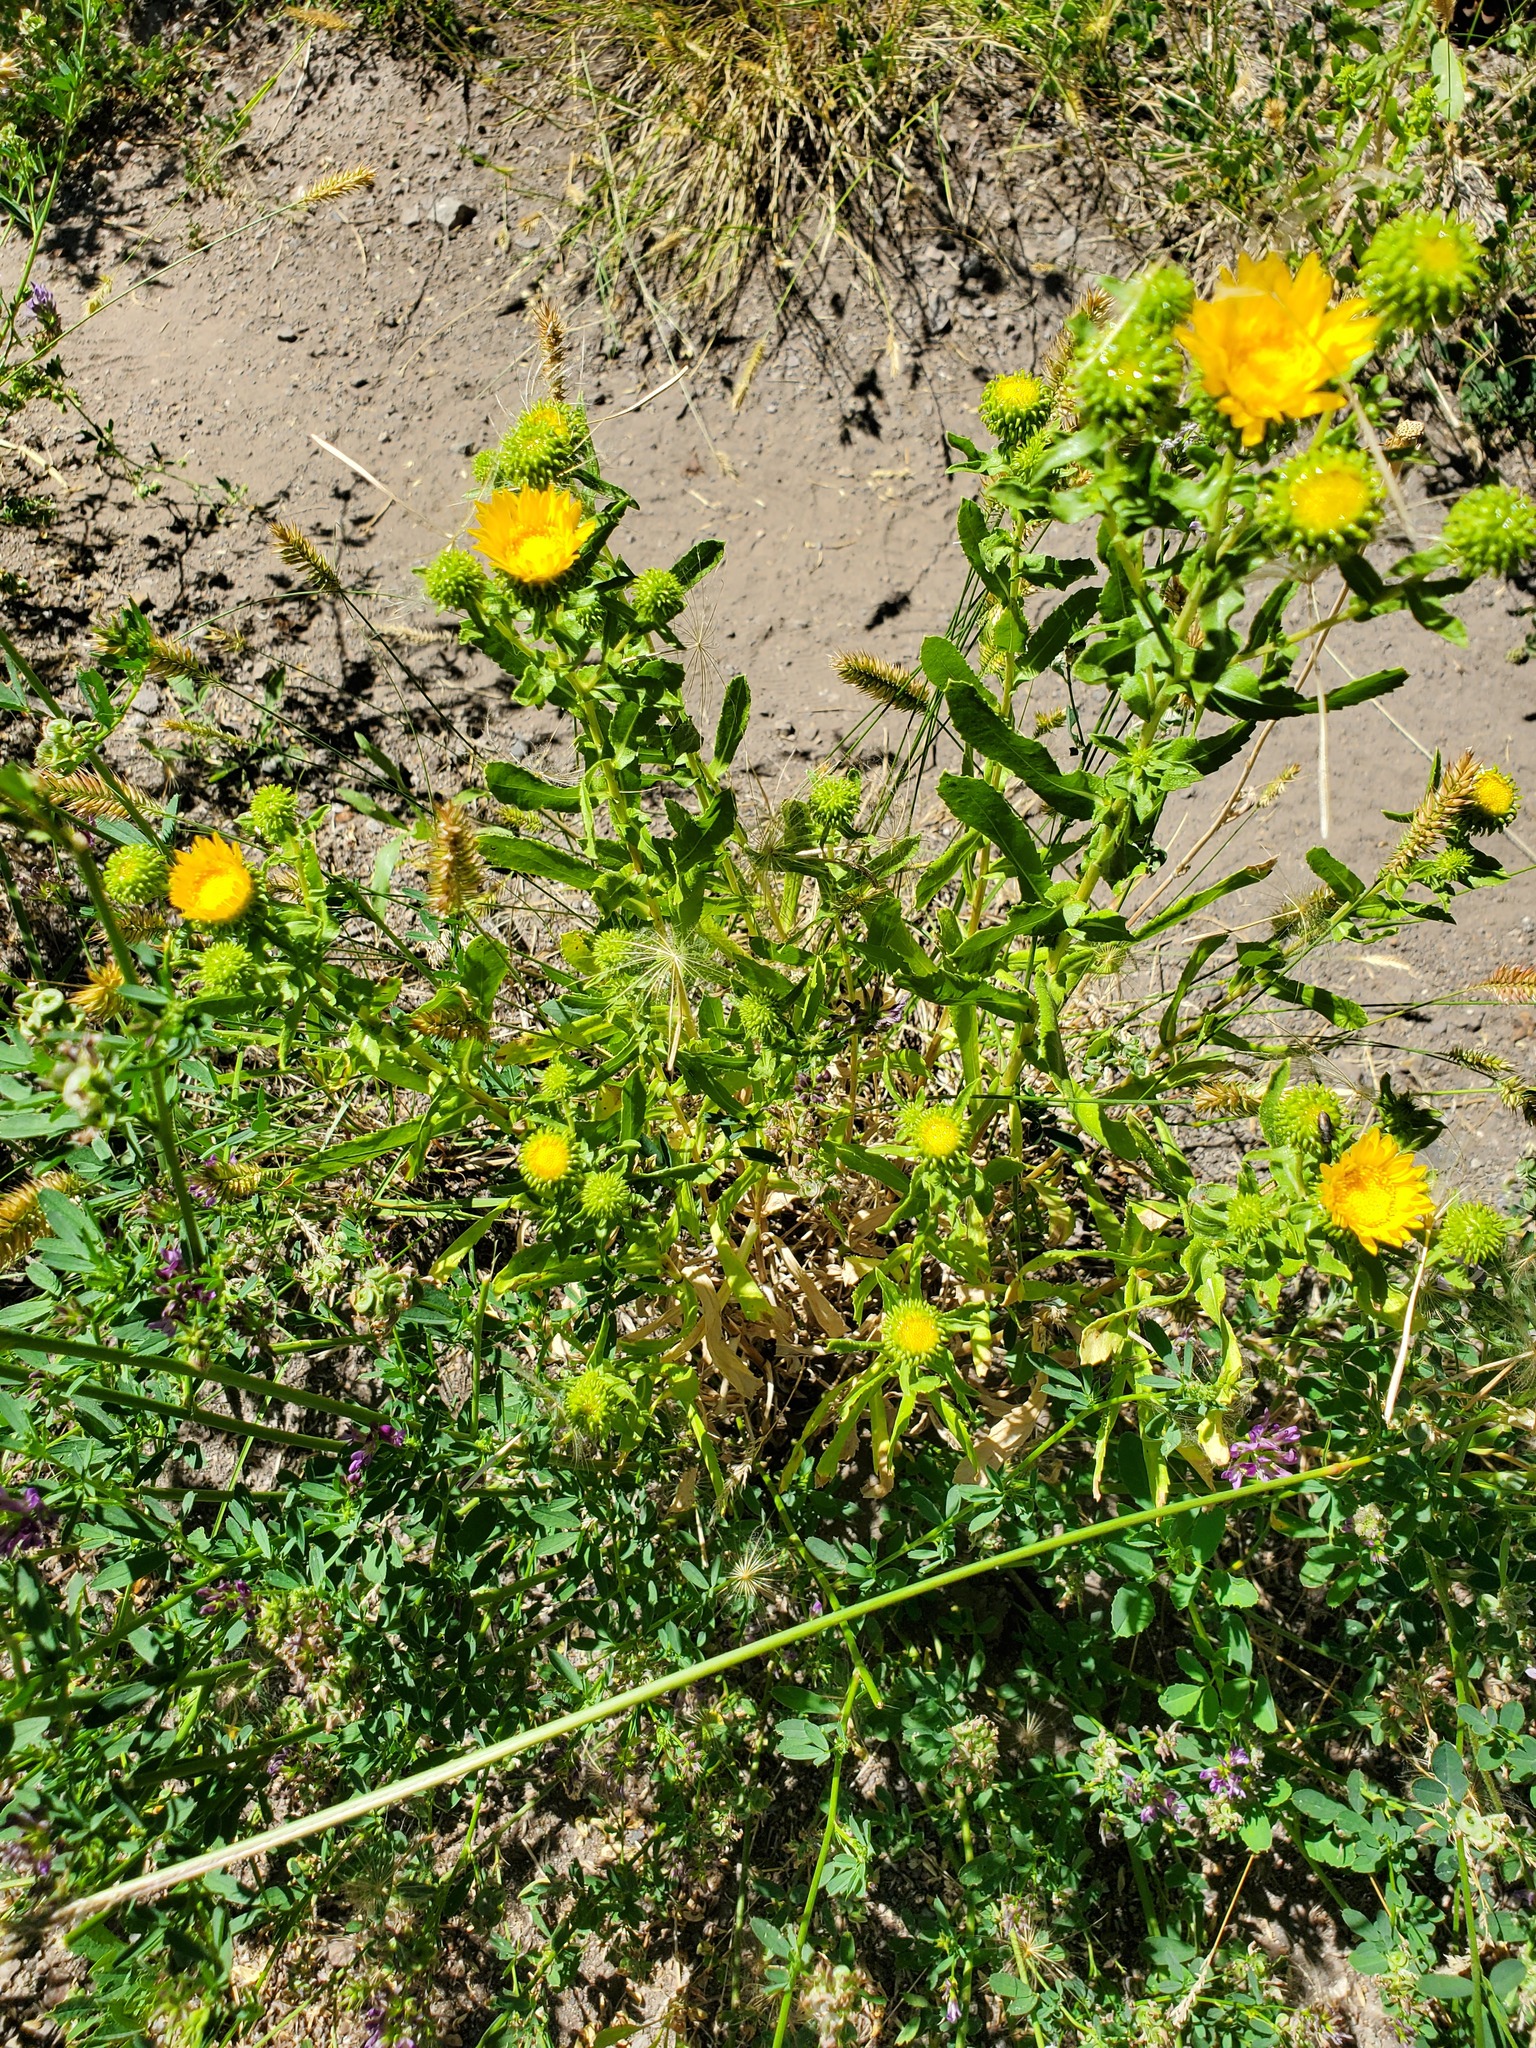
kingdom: Plantae
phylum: Tracheophyta
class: Magnoliopsida
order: Asterales
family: Asteraceae
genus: Grindelia
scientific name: Grindelia squarrosa
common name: Curly-cup gumweed
